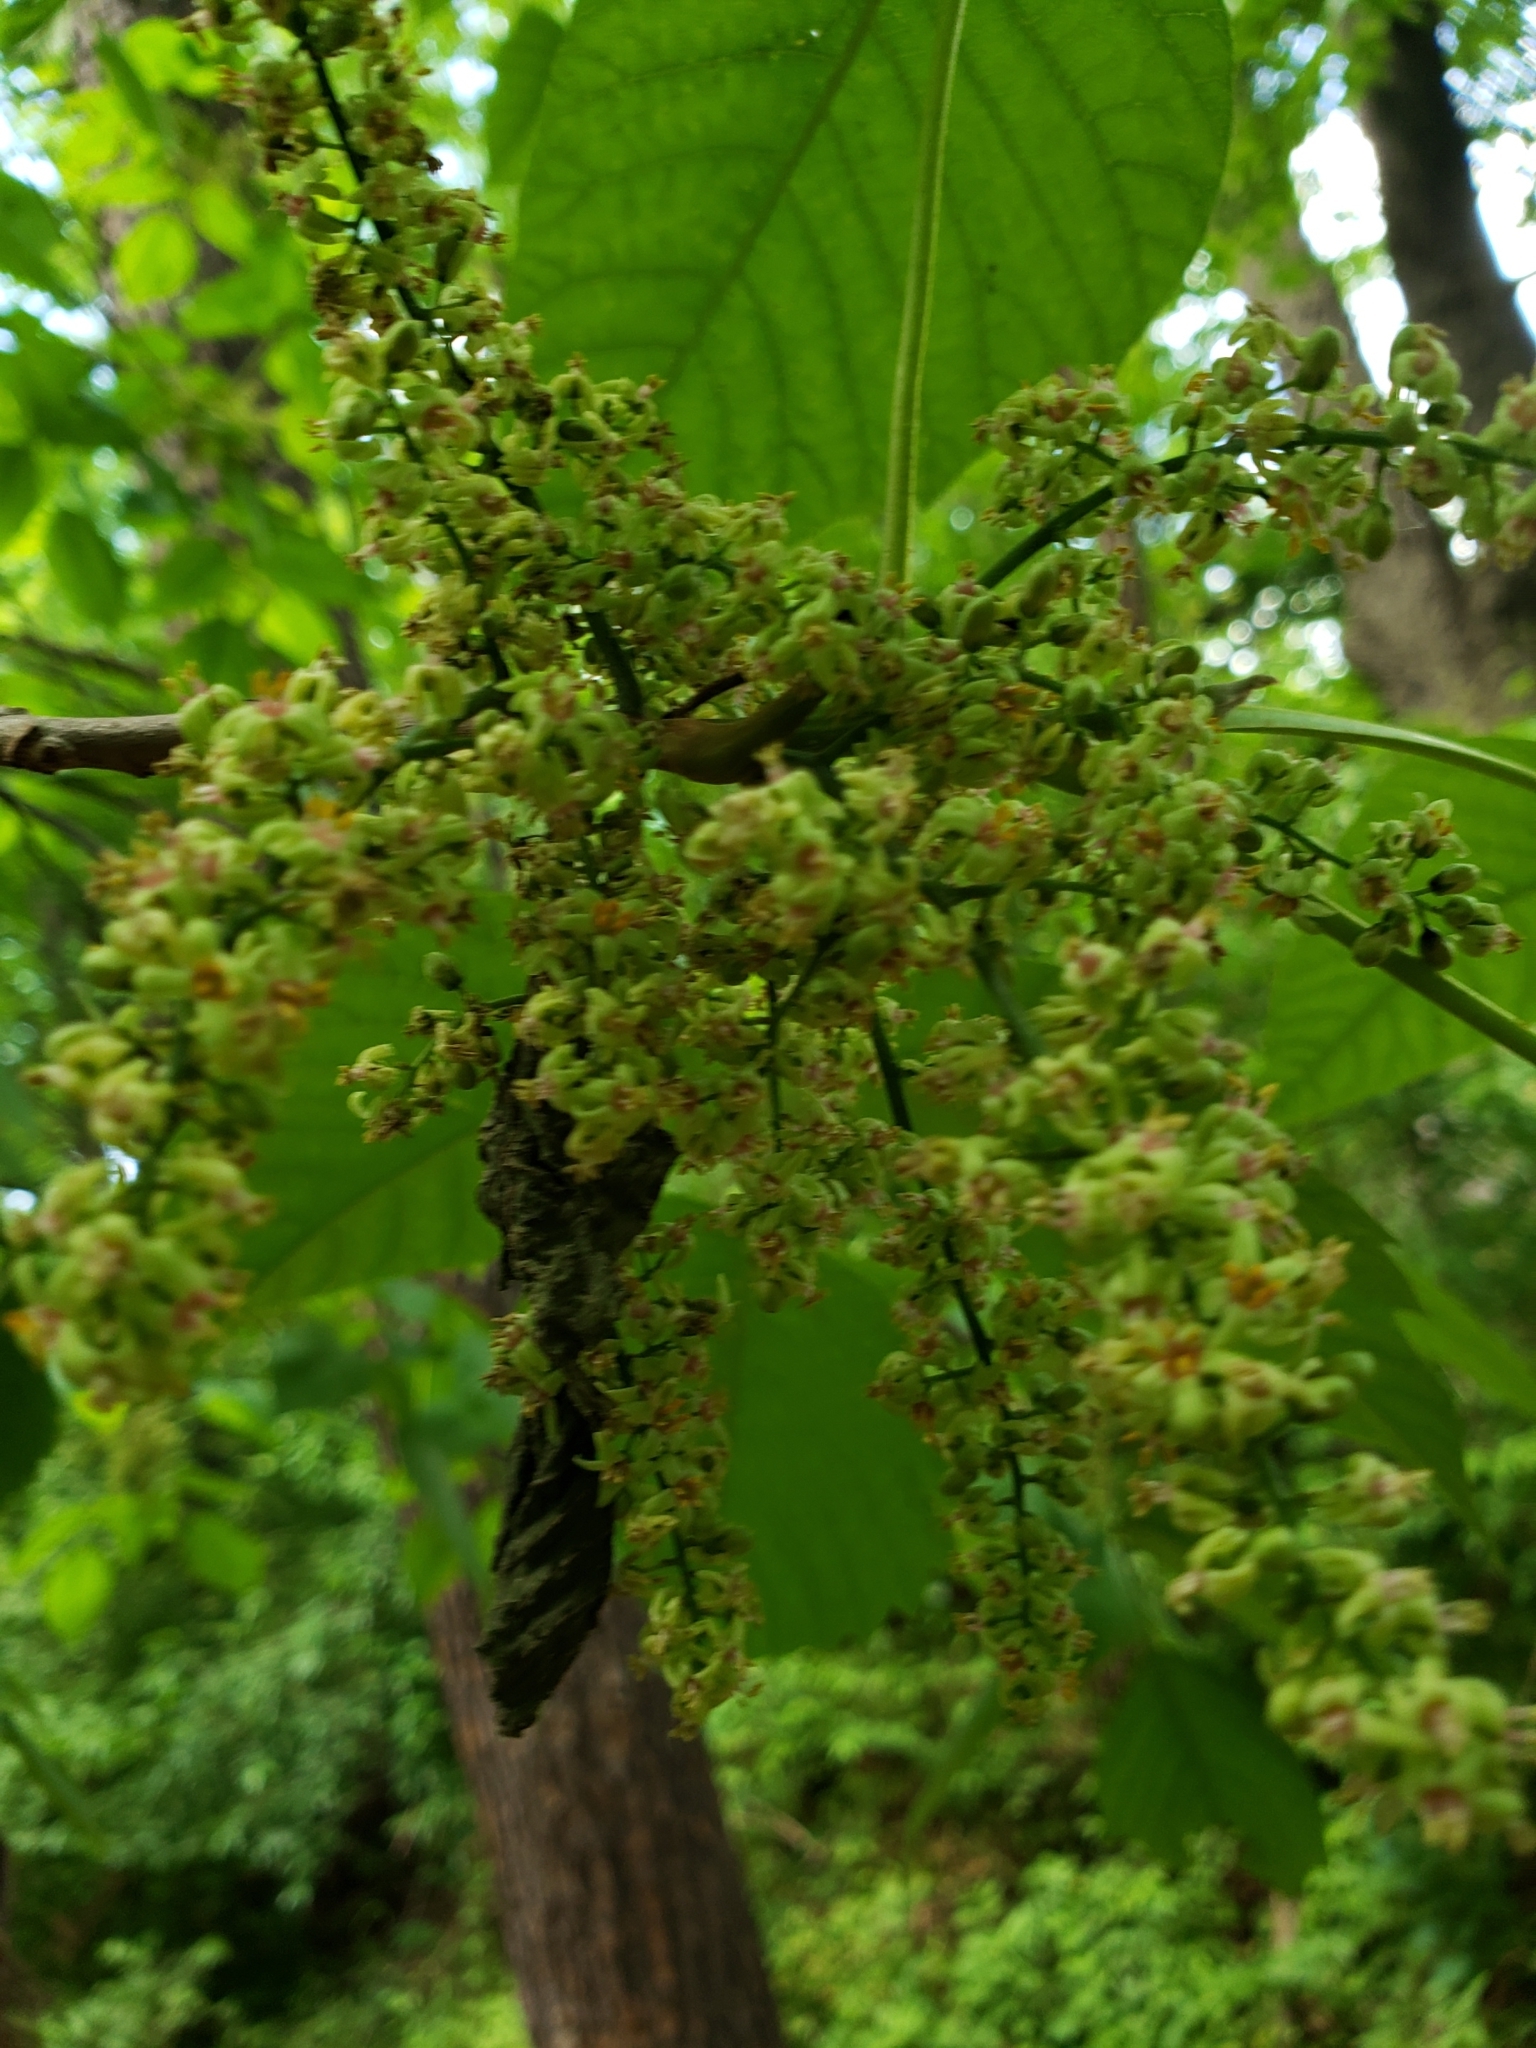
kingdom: Plantae
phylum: Tracheophyta
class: Magnoliopsida
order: Sapindales
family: Anacardiaceae
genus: Toxicodendron
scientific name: Toxicodendron radicans
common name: Poison ivy
